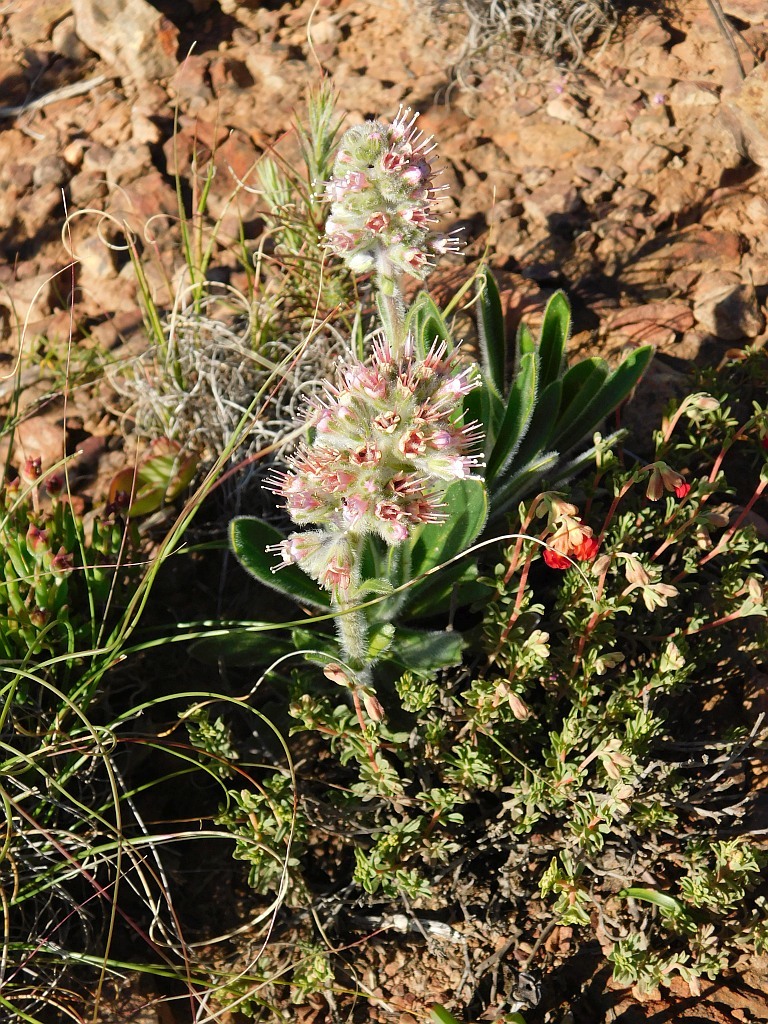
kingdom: Plantae
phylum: Tracheophyta
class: Magnoliopsida
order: Boraginales
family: Boraginaceae
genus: Lobostemon
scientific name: Lobostemon ecklonianus
